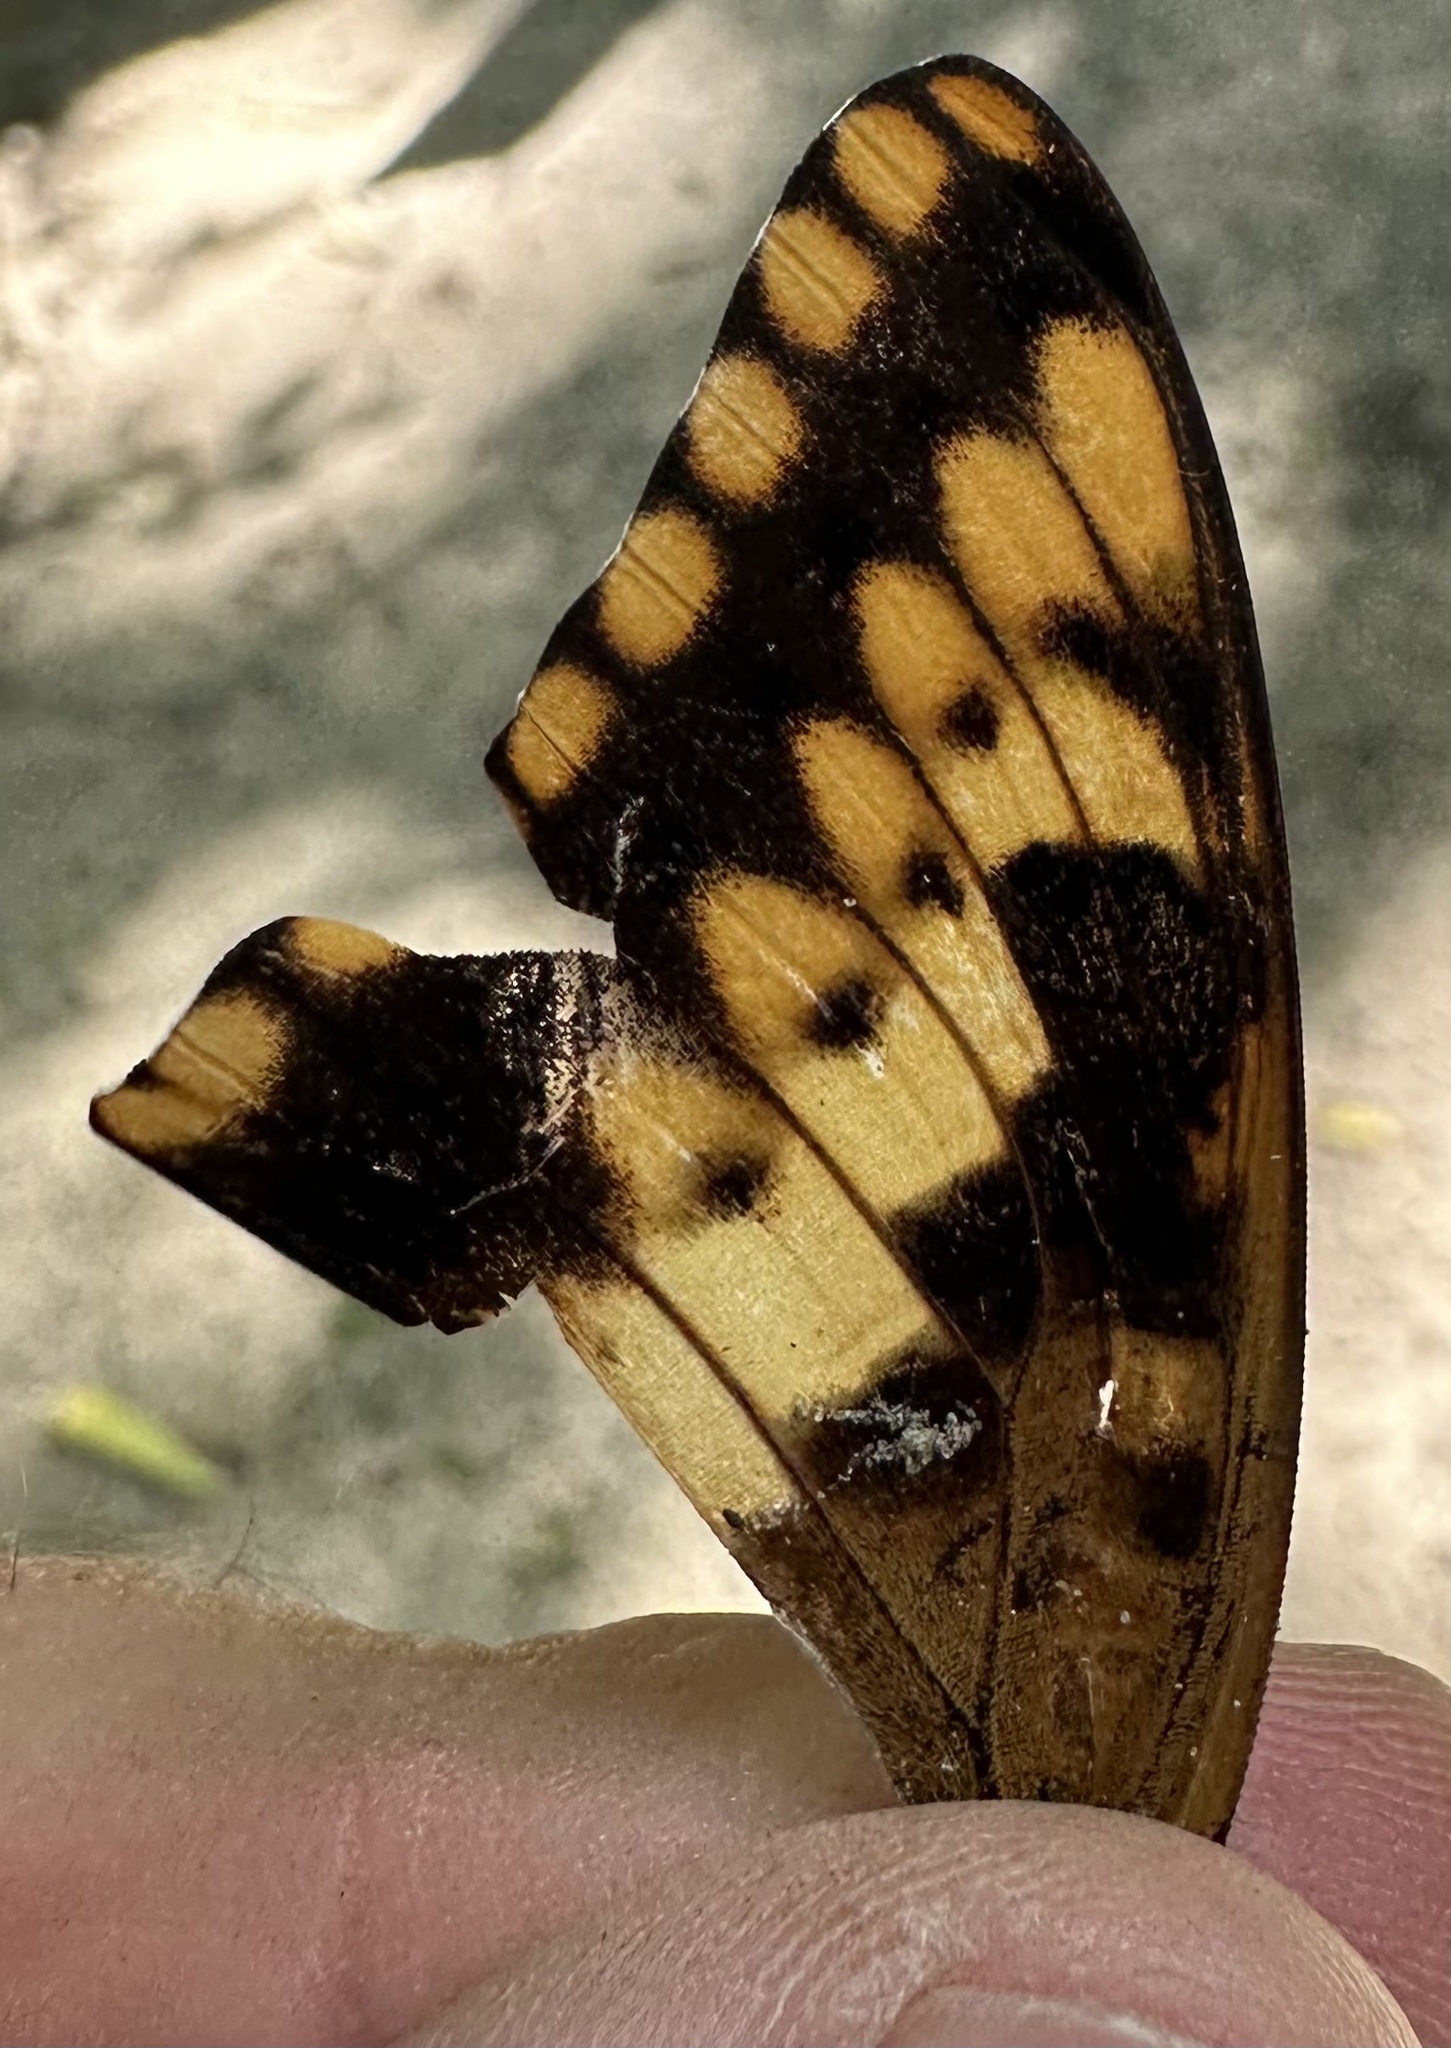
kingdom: Animalia
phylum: Arthropoda
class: Insecta
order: Lepidoptera
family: Nymphalidae
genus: Charaxes
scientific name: Charaxes jasius
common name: Two tailed pasha
